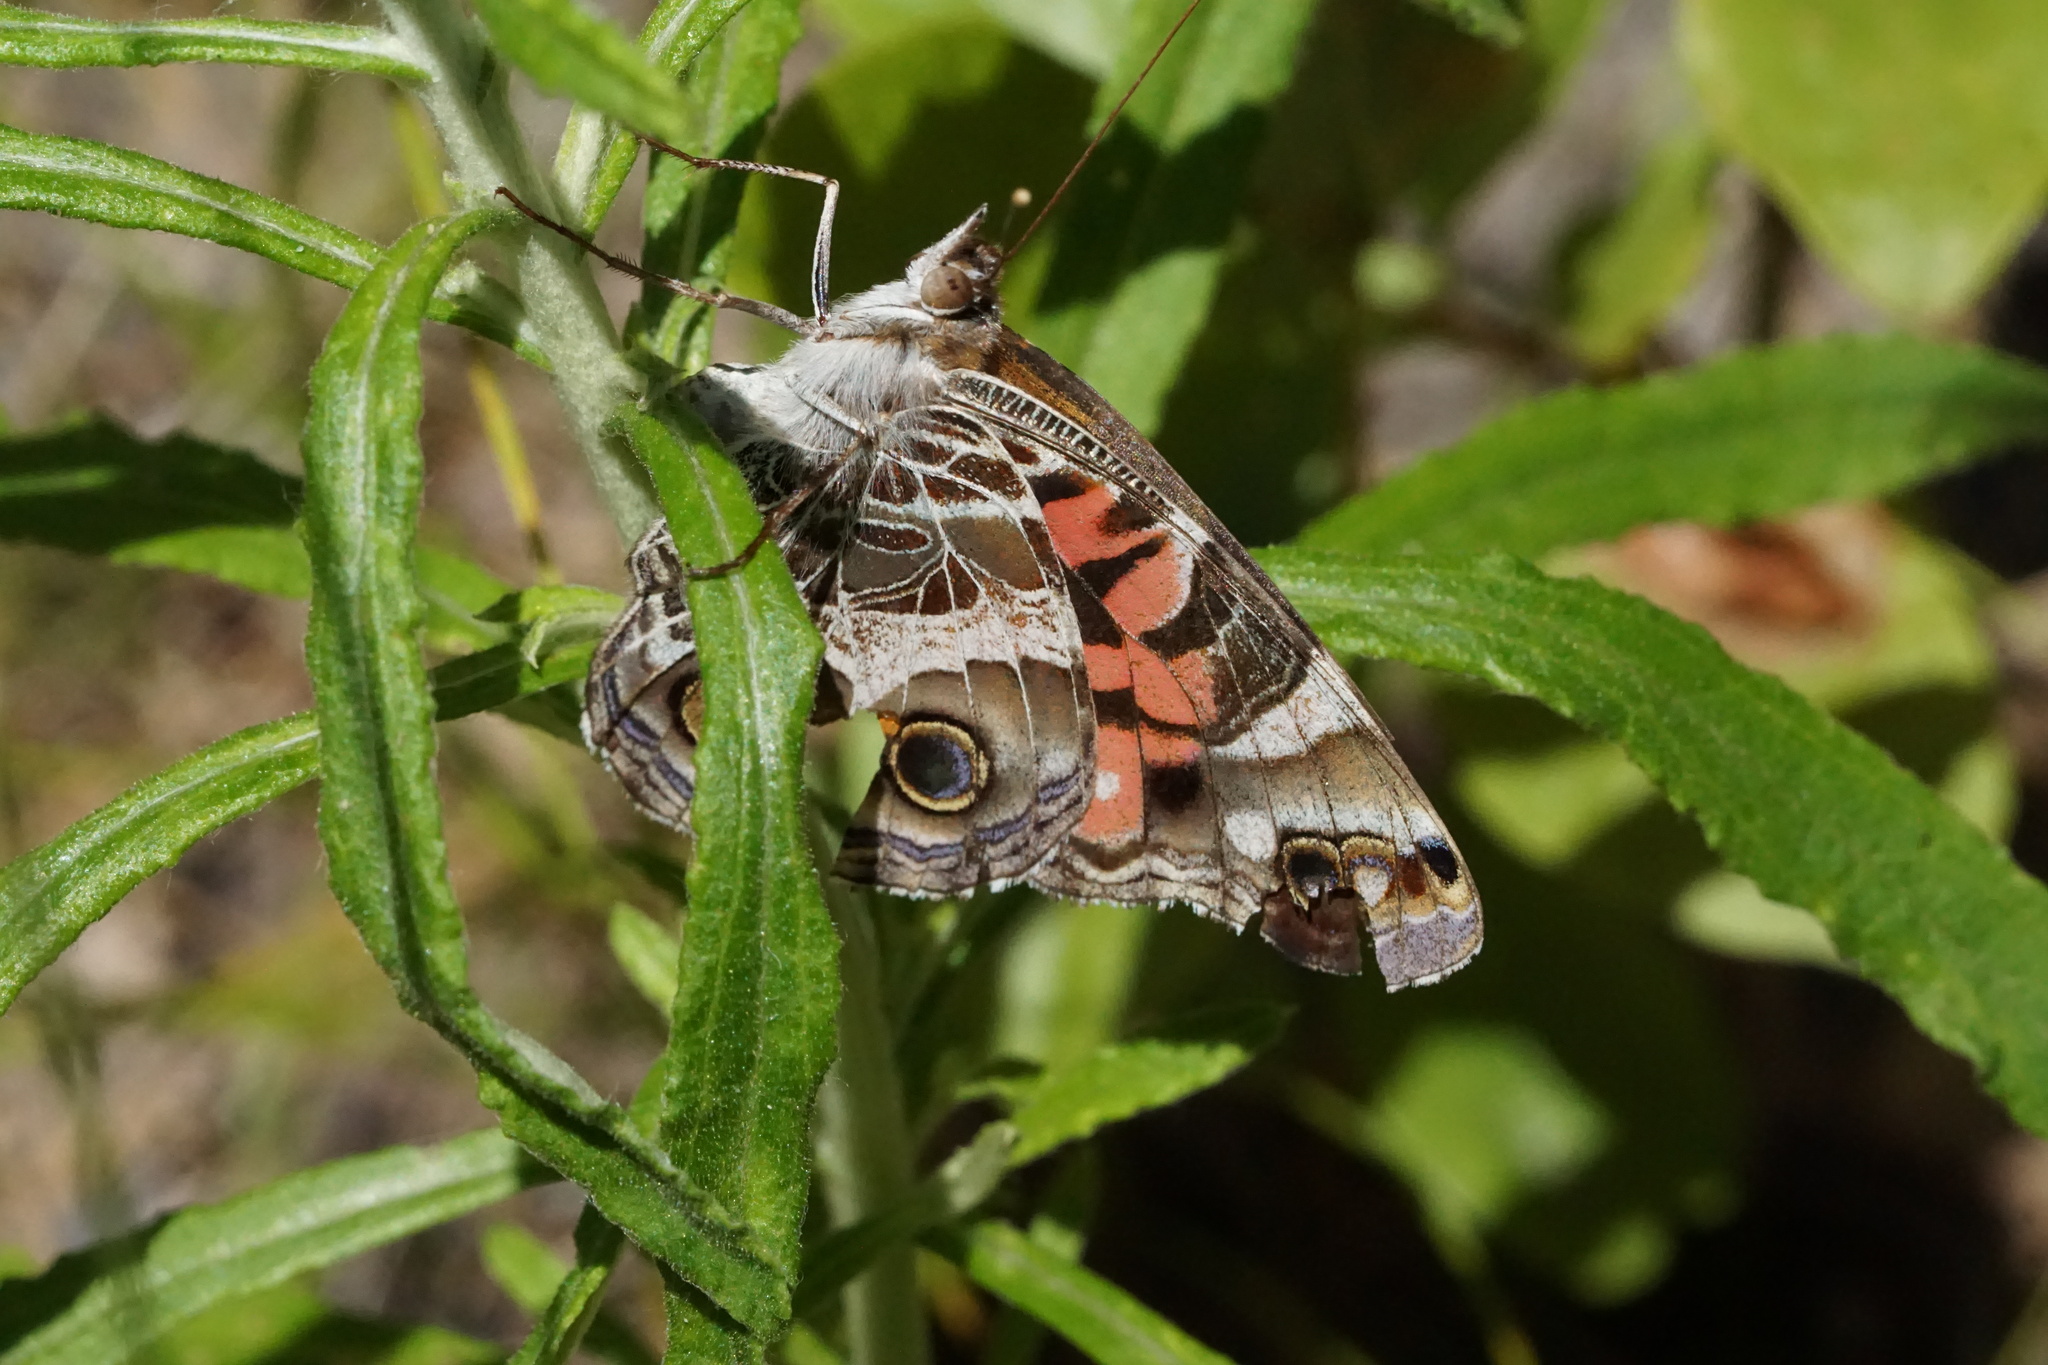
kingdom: Animalia
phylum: Arthropoda
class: Insecta
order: Lepidoptera
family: Nymphalidae
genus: Vanessa
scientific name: Vanessa virginiensis
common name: American lady
